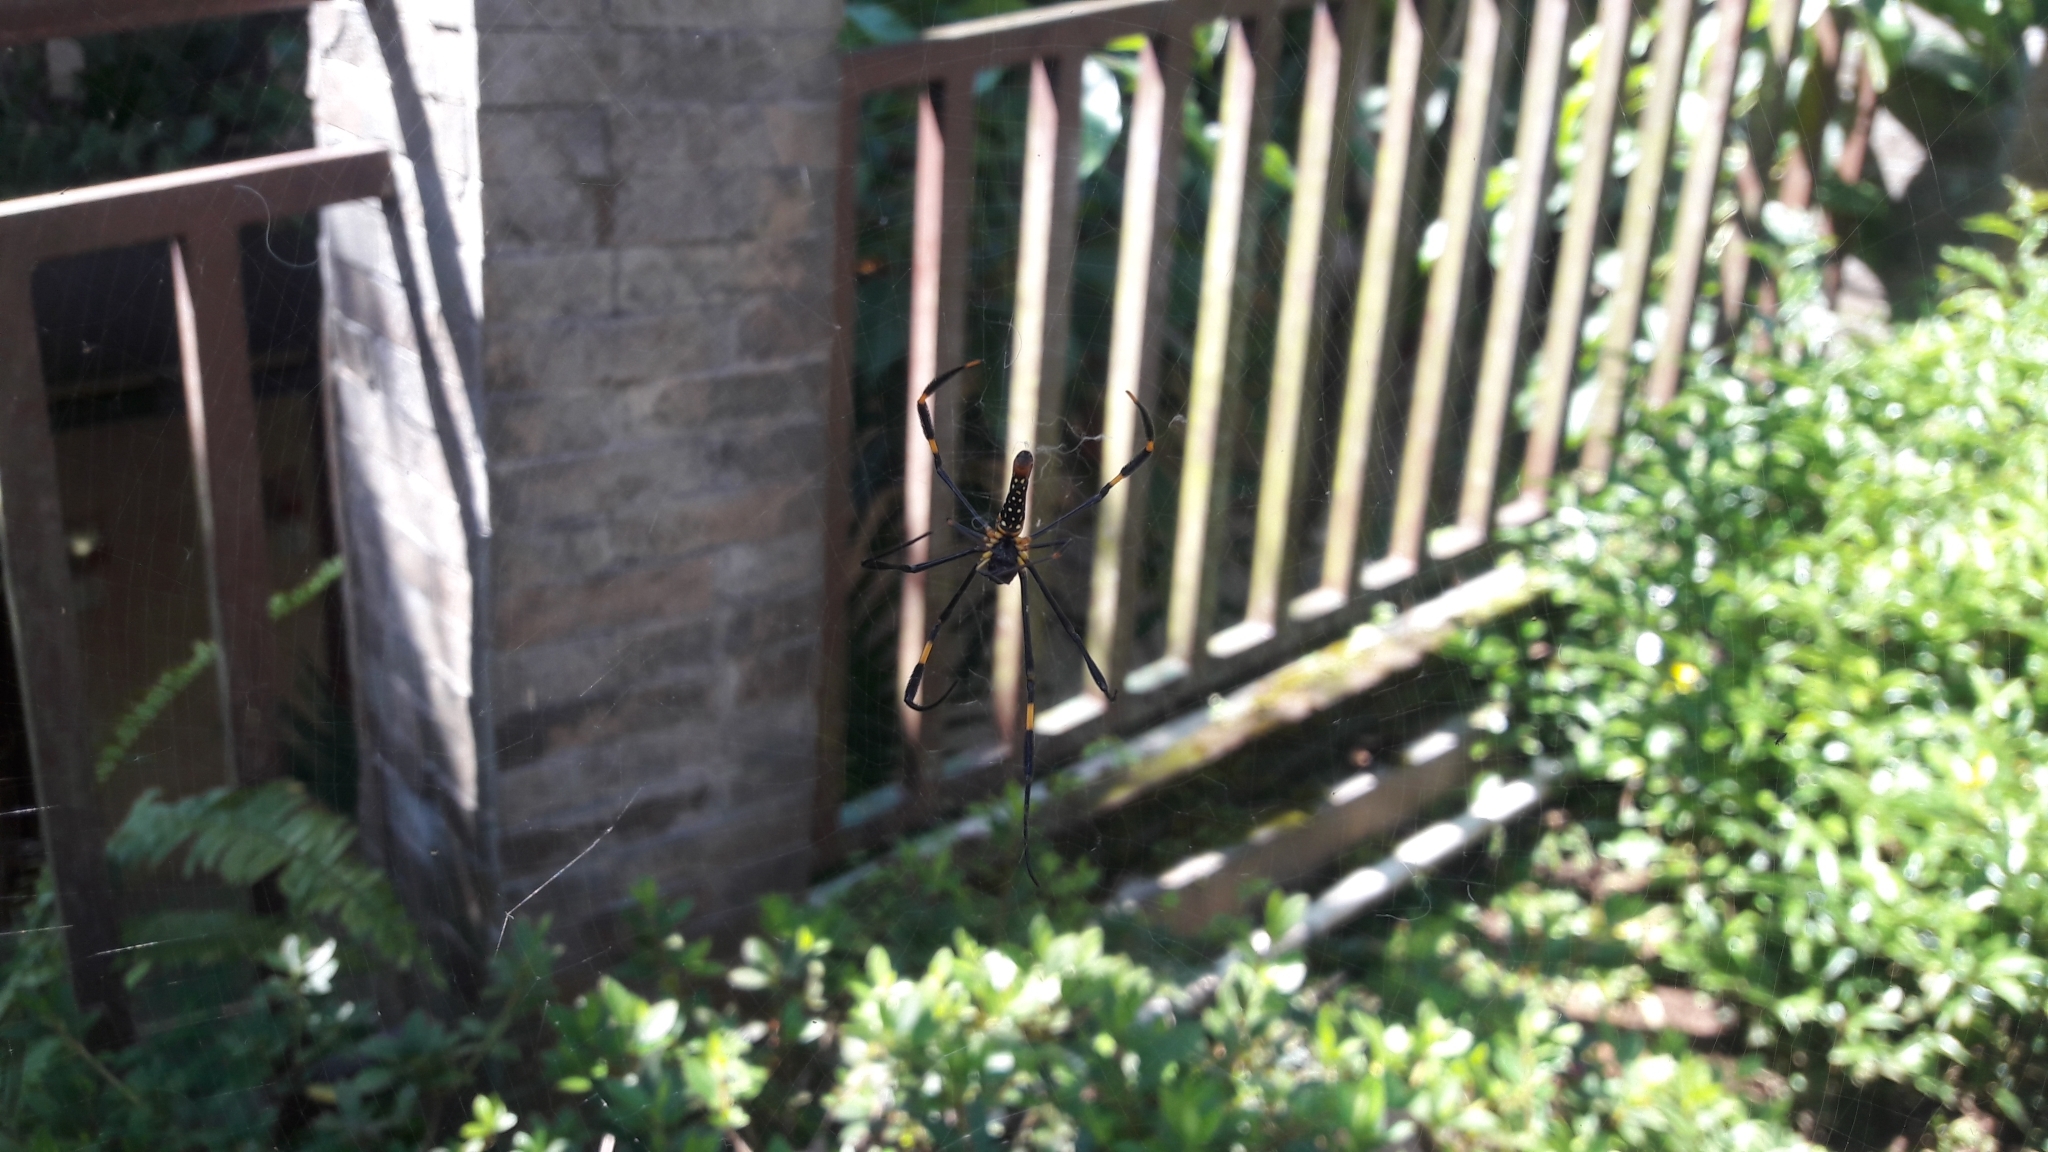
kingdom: Animalia
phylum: Arthropoda
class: Arachnida
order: Araneae
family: Araneidae
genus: Nephila
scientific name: Nephila pilipes
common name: Giant golden orb weaver
